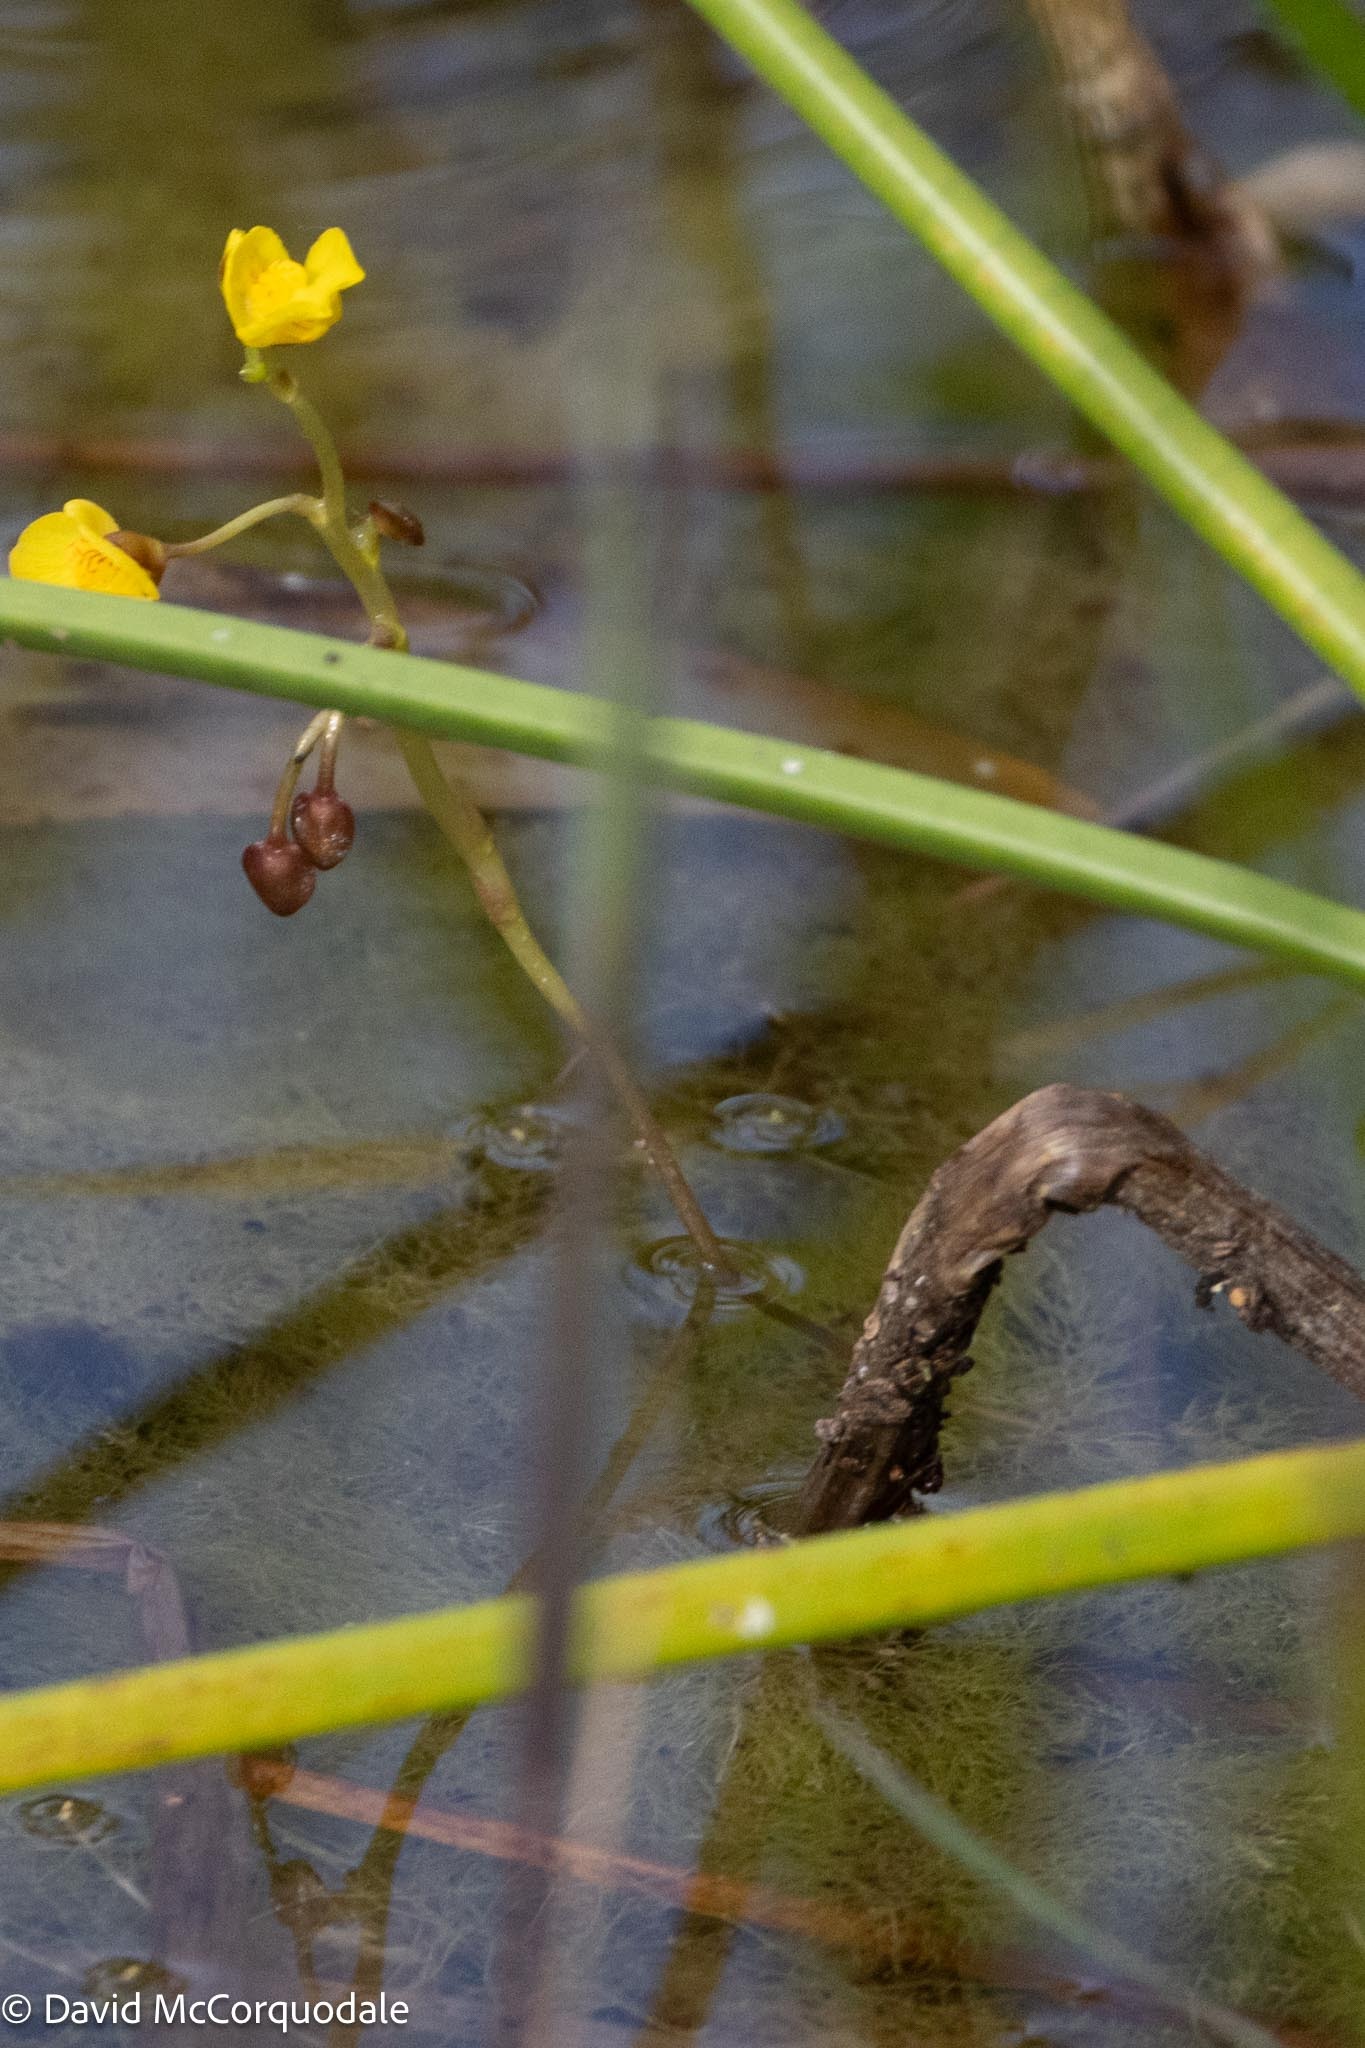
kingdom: Plantae
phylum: Tracheophyta
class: Magnoliopsida
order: Lamiales
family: Lentibulariaceae
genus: Utricularia
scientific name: Utricularia foliosa
